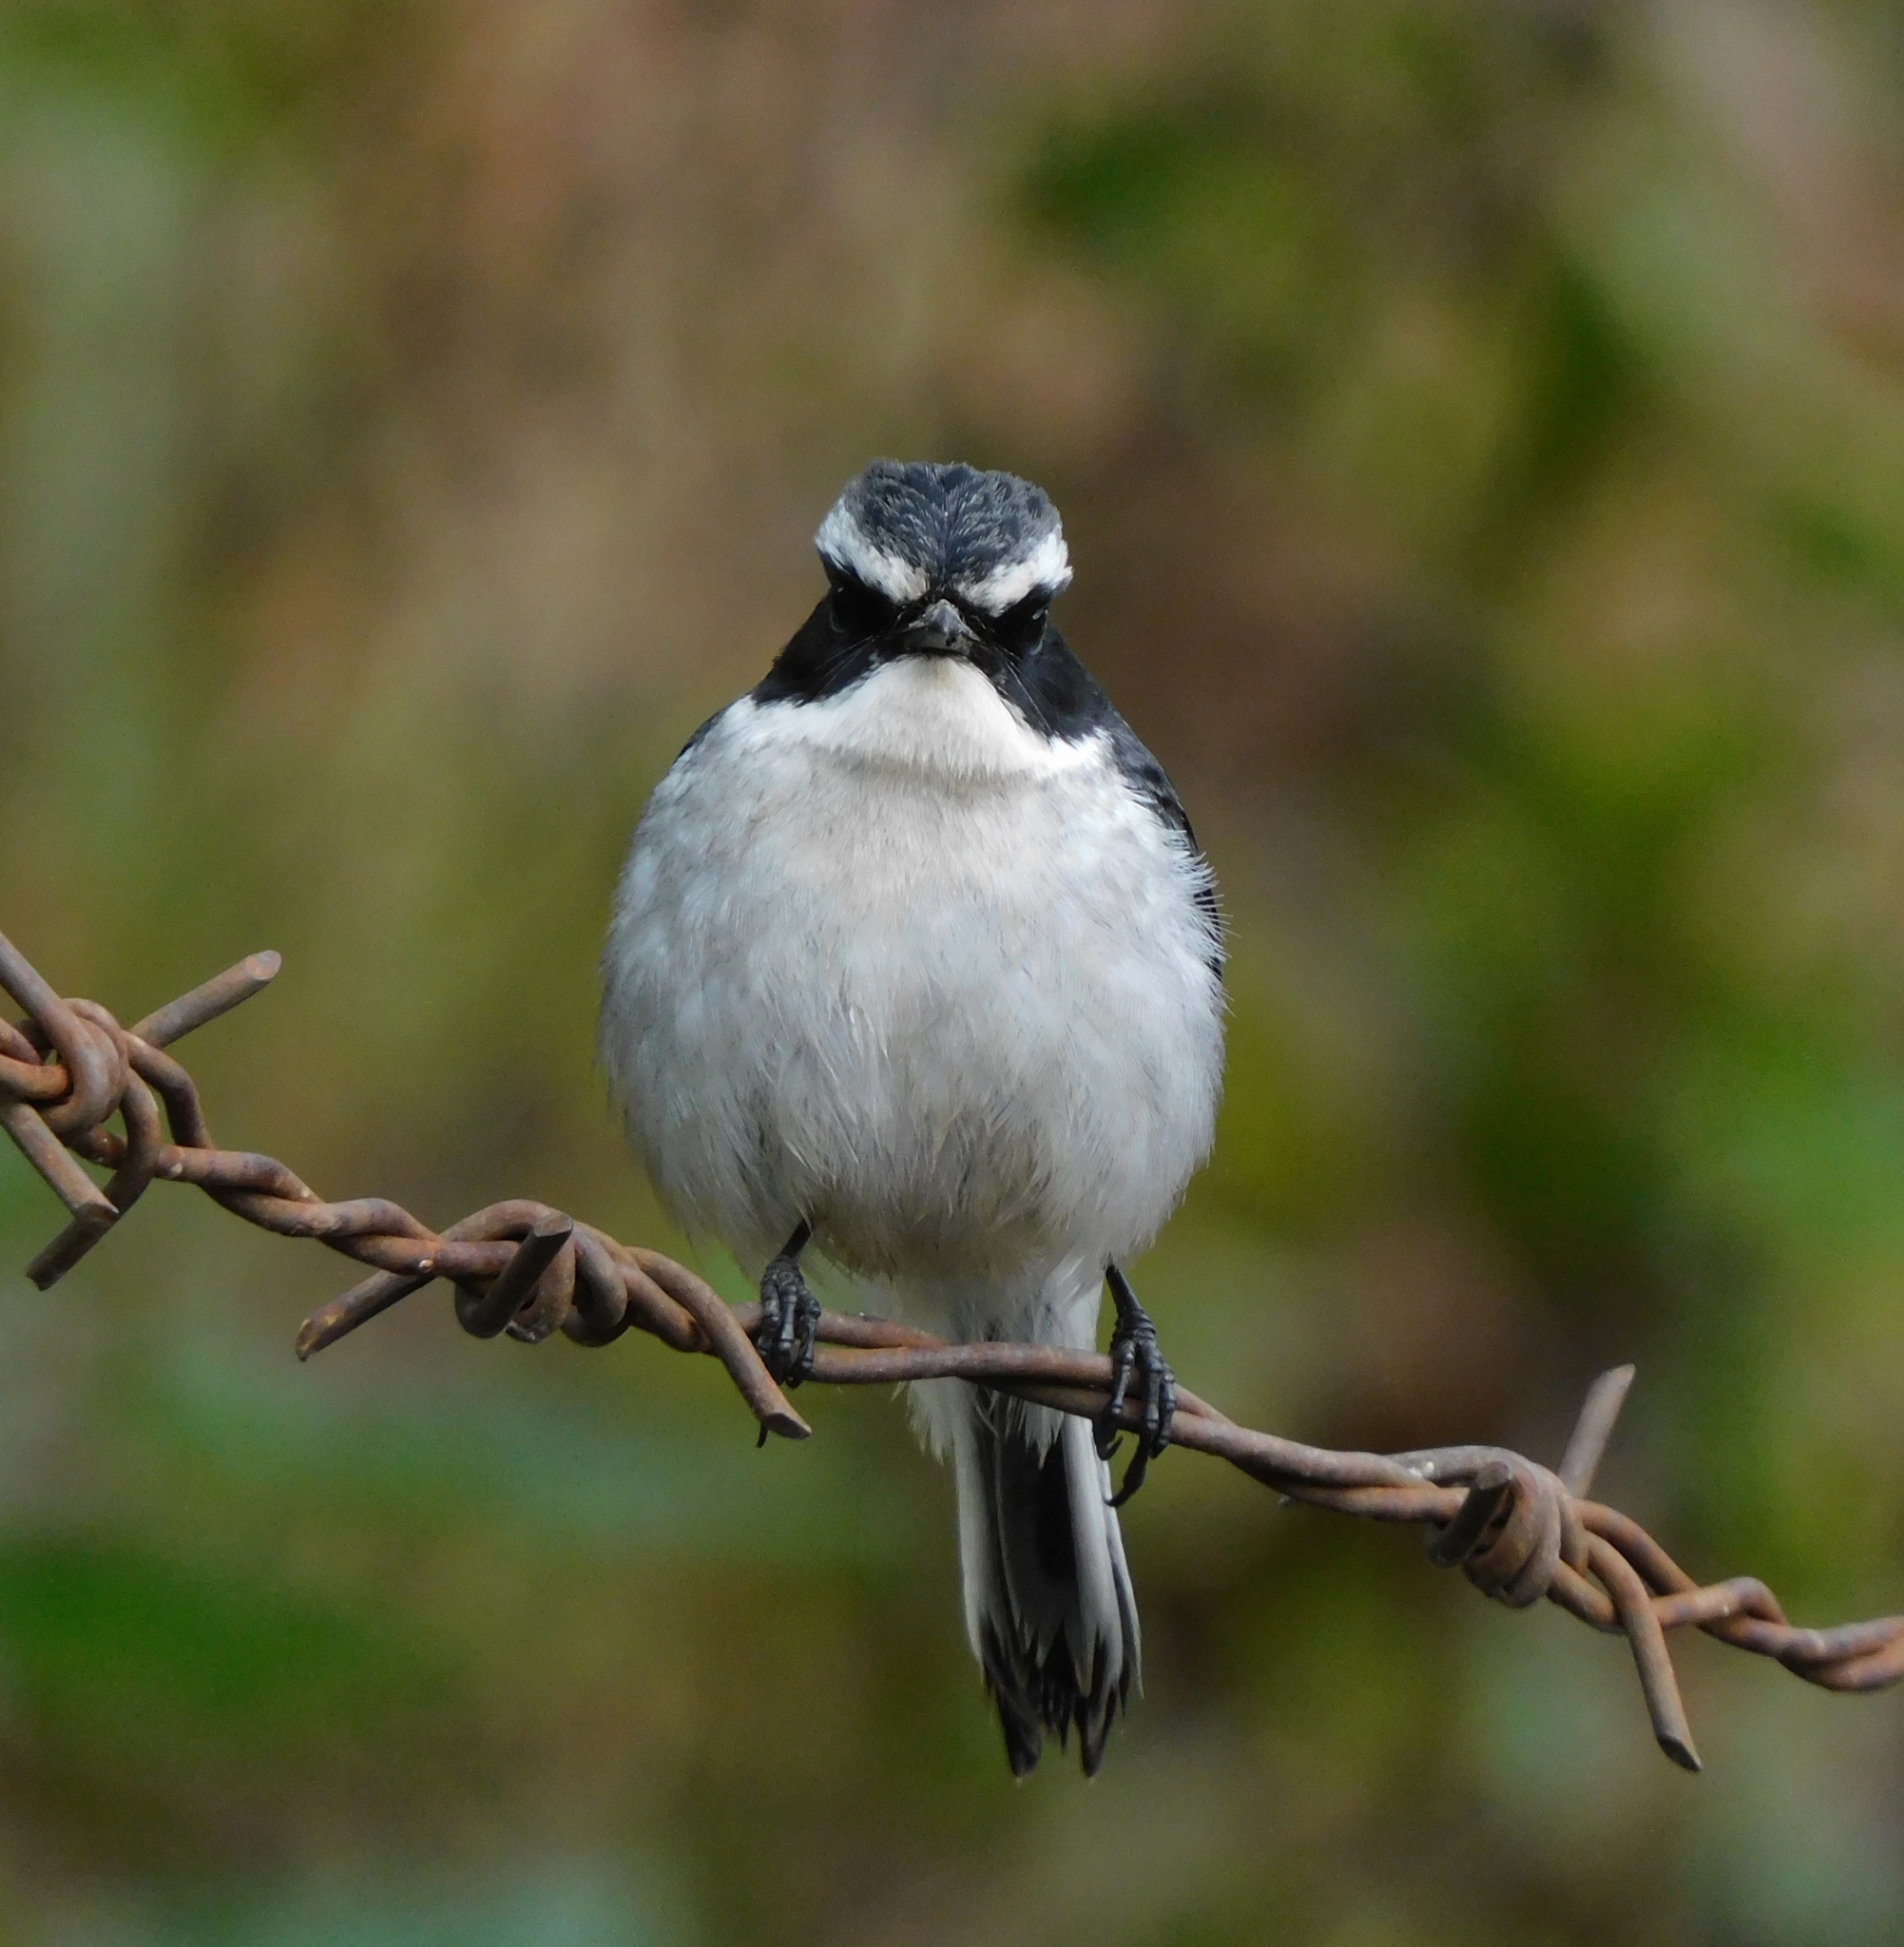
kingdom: Animalia
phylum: Chordata
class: Aves
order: Passeriformes
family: Muscicapidae
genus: Saxicola
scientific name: Saxicola ferreus
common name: Grey bush chat
